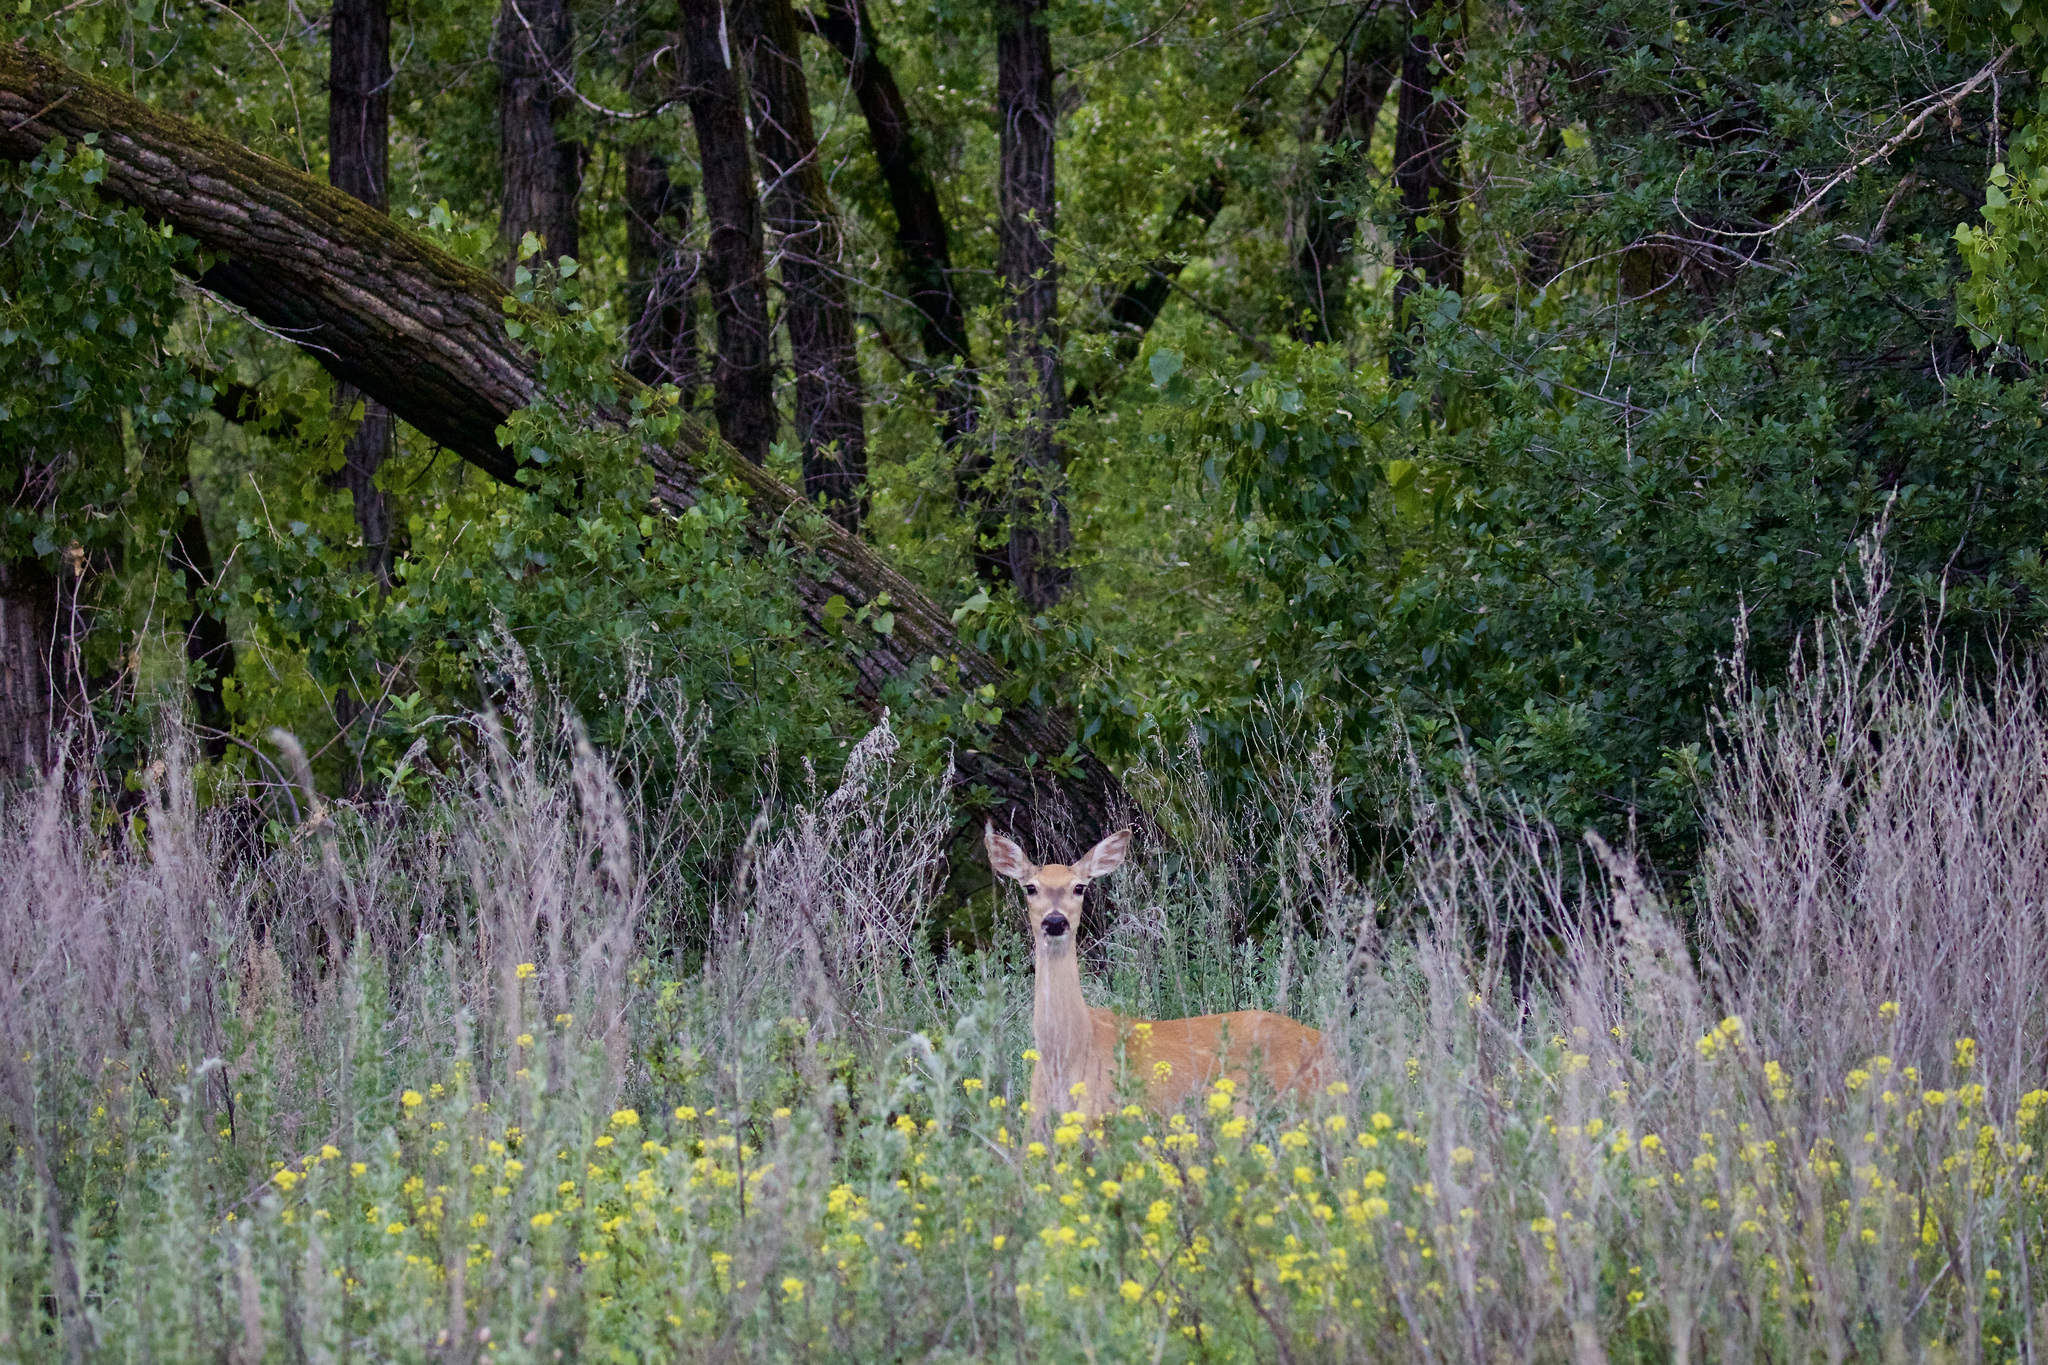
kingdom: Animalia
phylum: Chordata
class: Mammalia
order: Artiodactyla
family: Cervidae
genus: Odocoileus
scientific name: Odocoileus virginianus
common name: White-tailed deer
